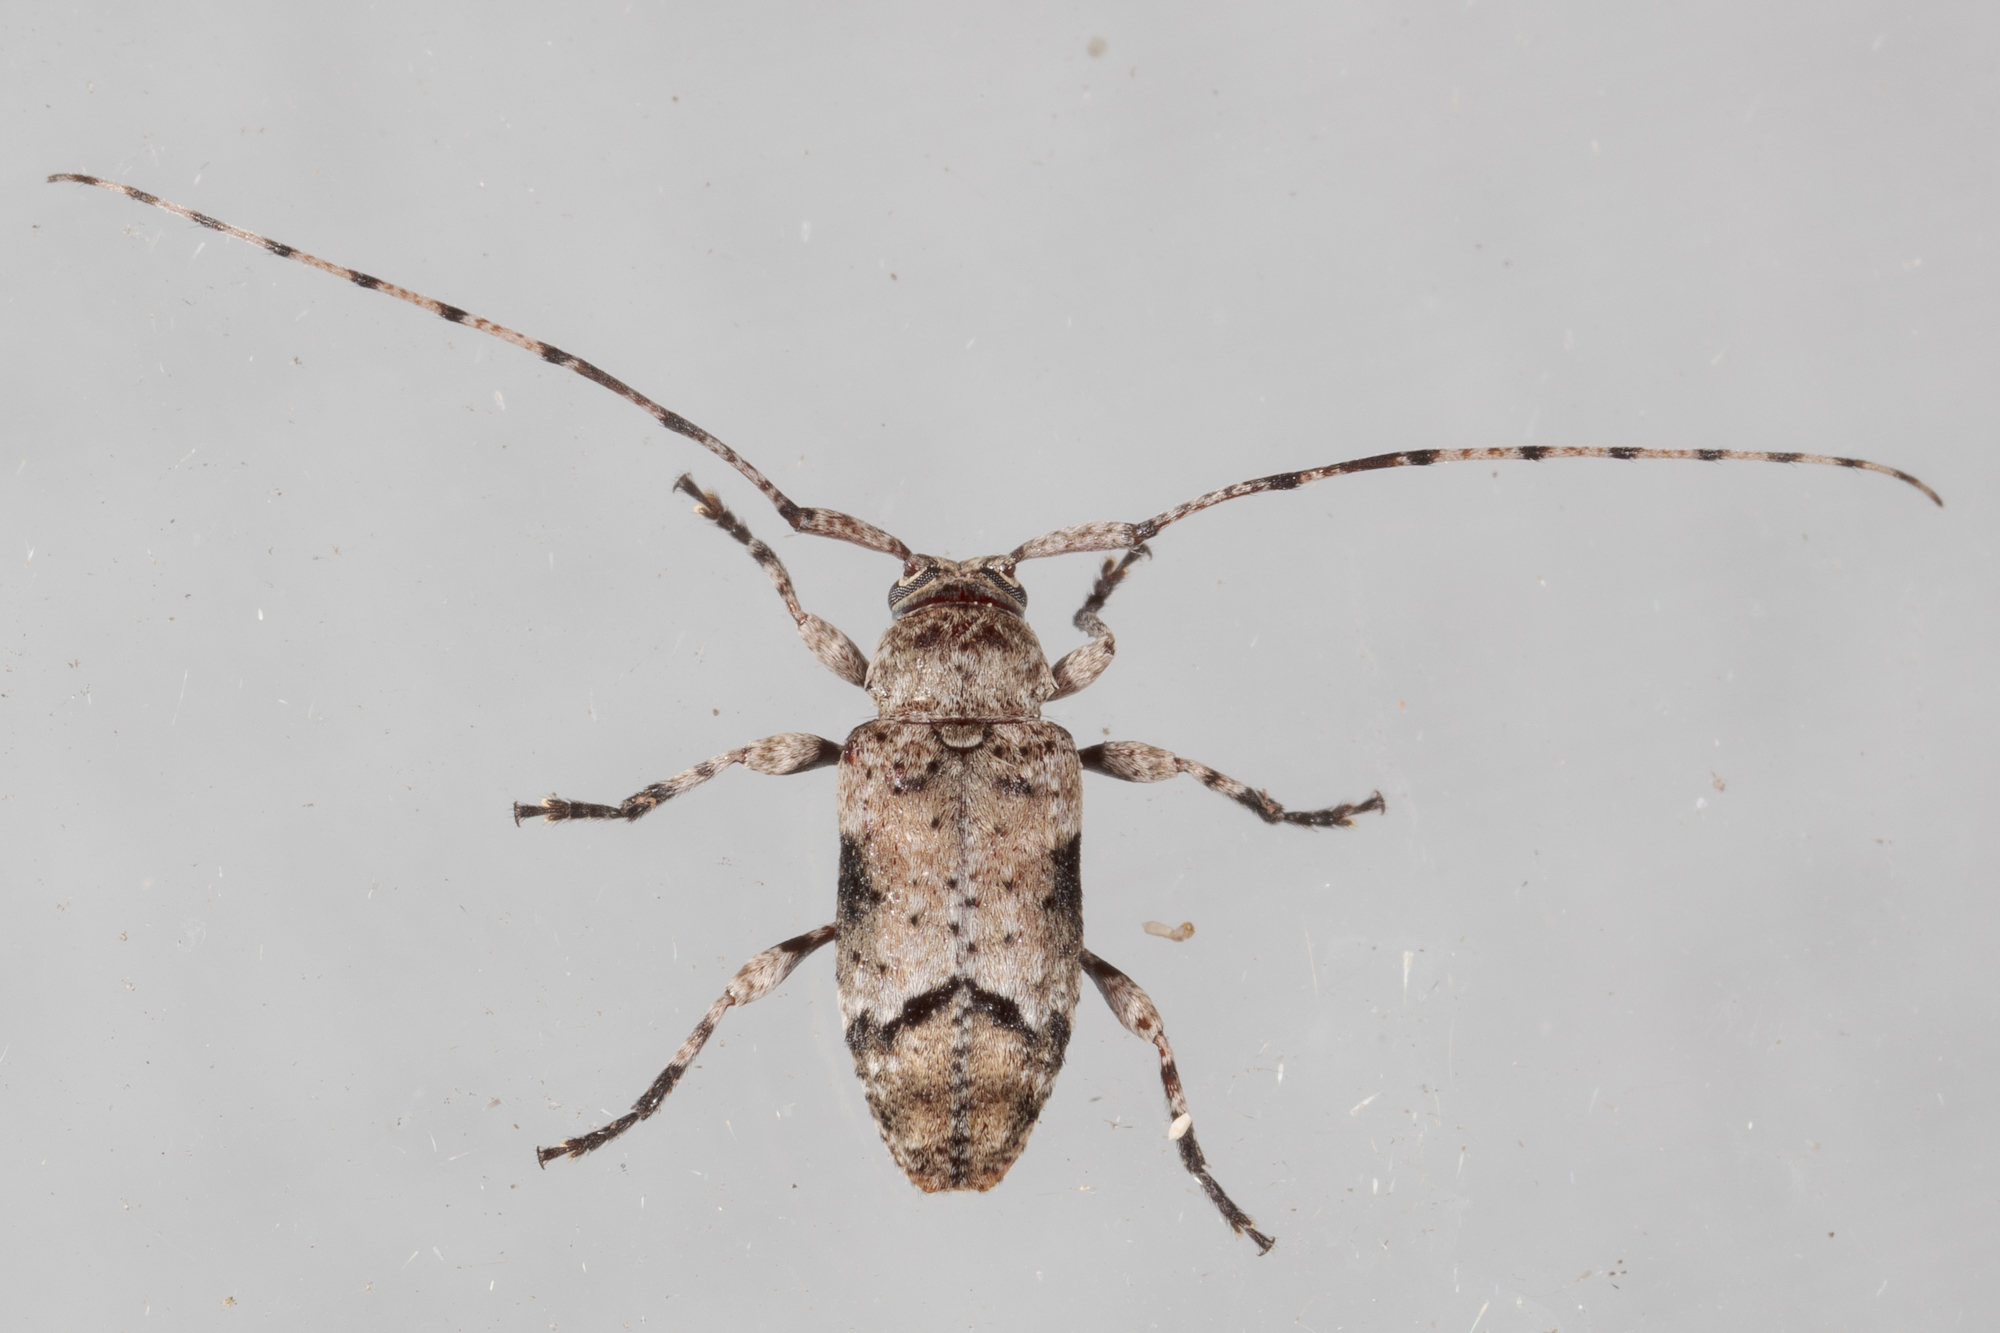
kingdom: Animalia
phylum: Arthropoda
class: Insecta
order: Coleoptera
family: Cerambycidae
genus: Sternidius
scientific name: Sternidius mimeticus
